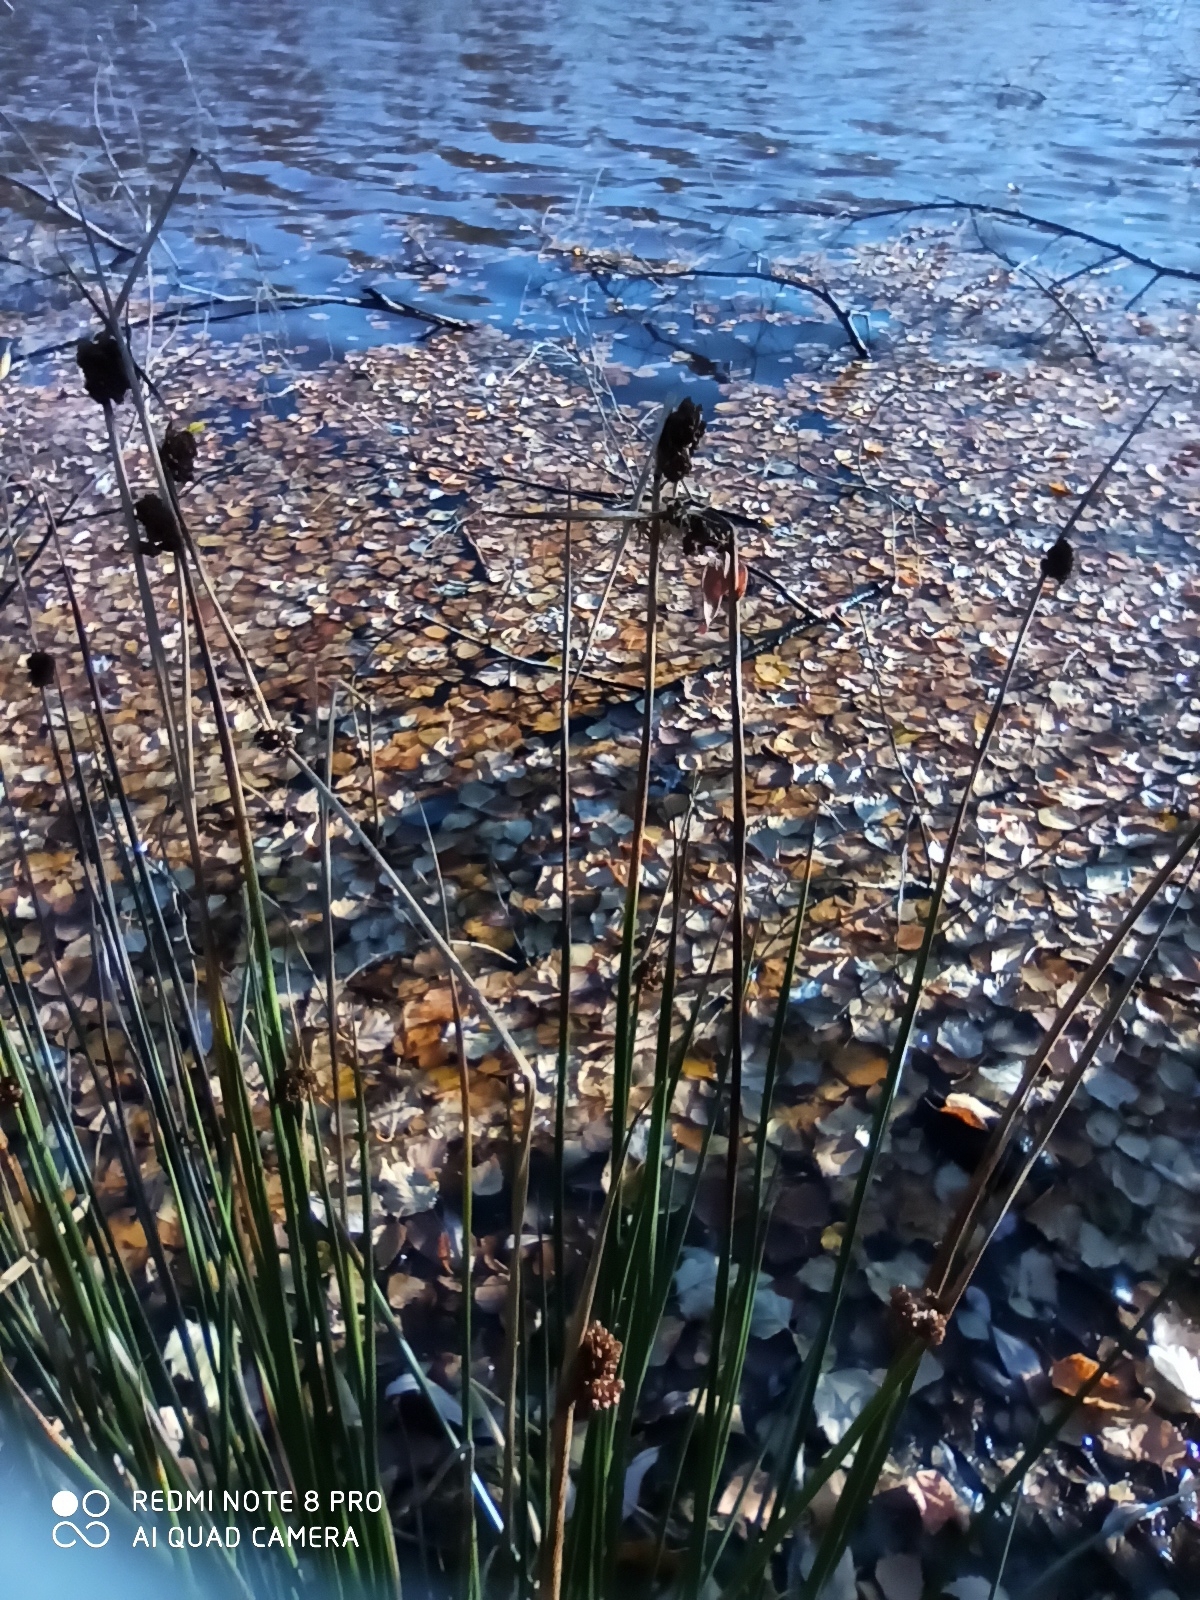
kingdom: Plantae
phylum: Tracheophyta
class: Liliopsida
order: Poales
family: Juncaceae
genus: Juncus
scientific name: Juncus effusus
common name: Soft rush
